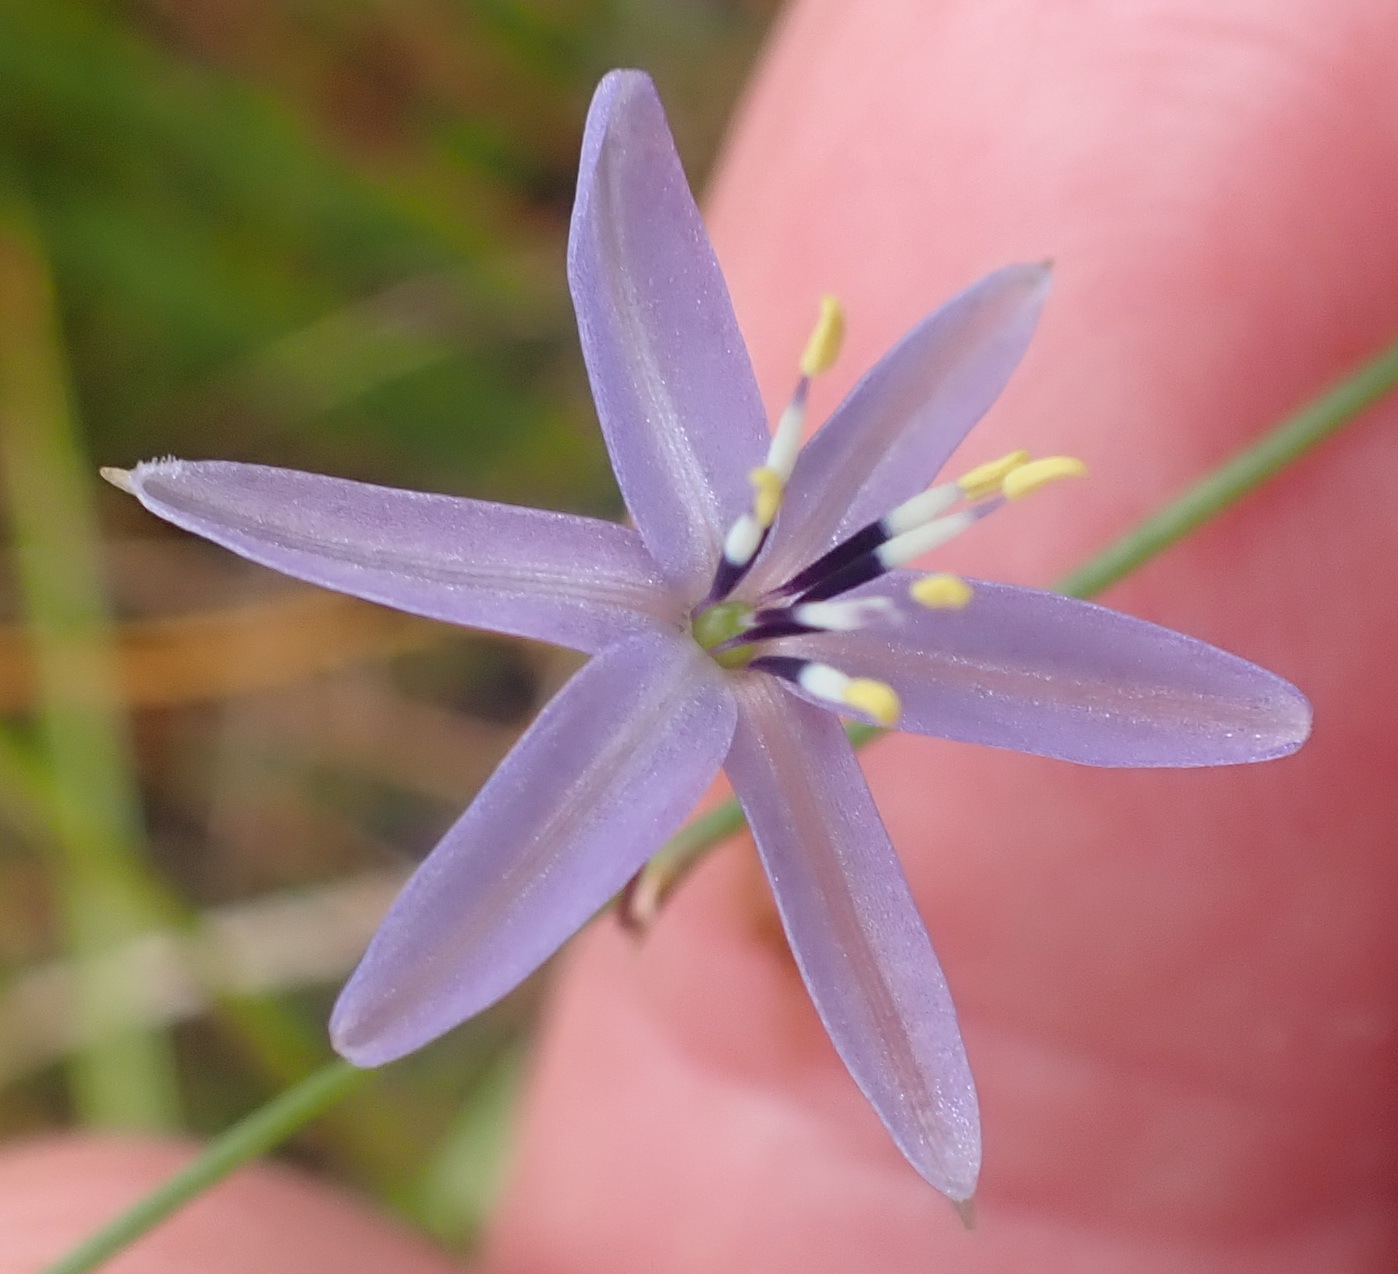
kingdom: Plantae
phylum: Tracheophyta
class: Liliopsida
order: Asparagales
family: Asphodelaceae
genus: Caesia
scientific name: Caesia contorta
